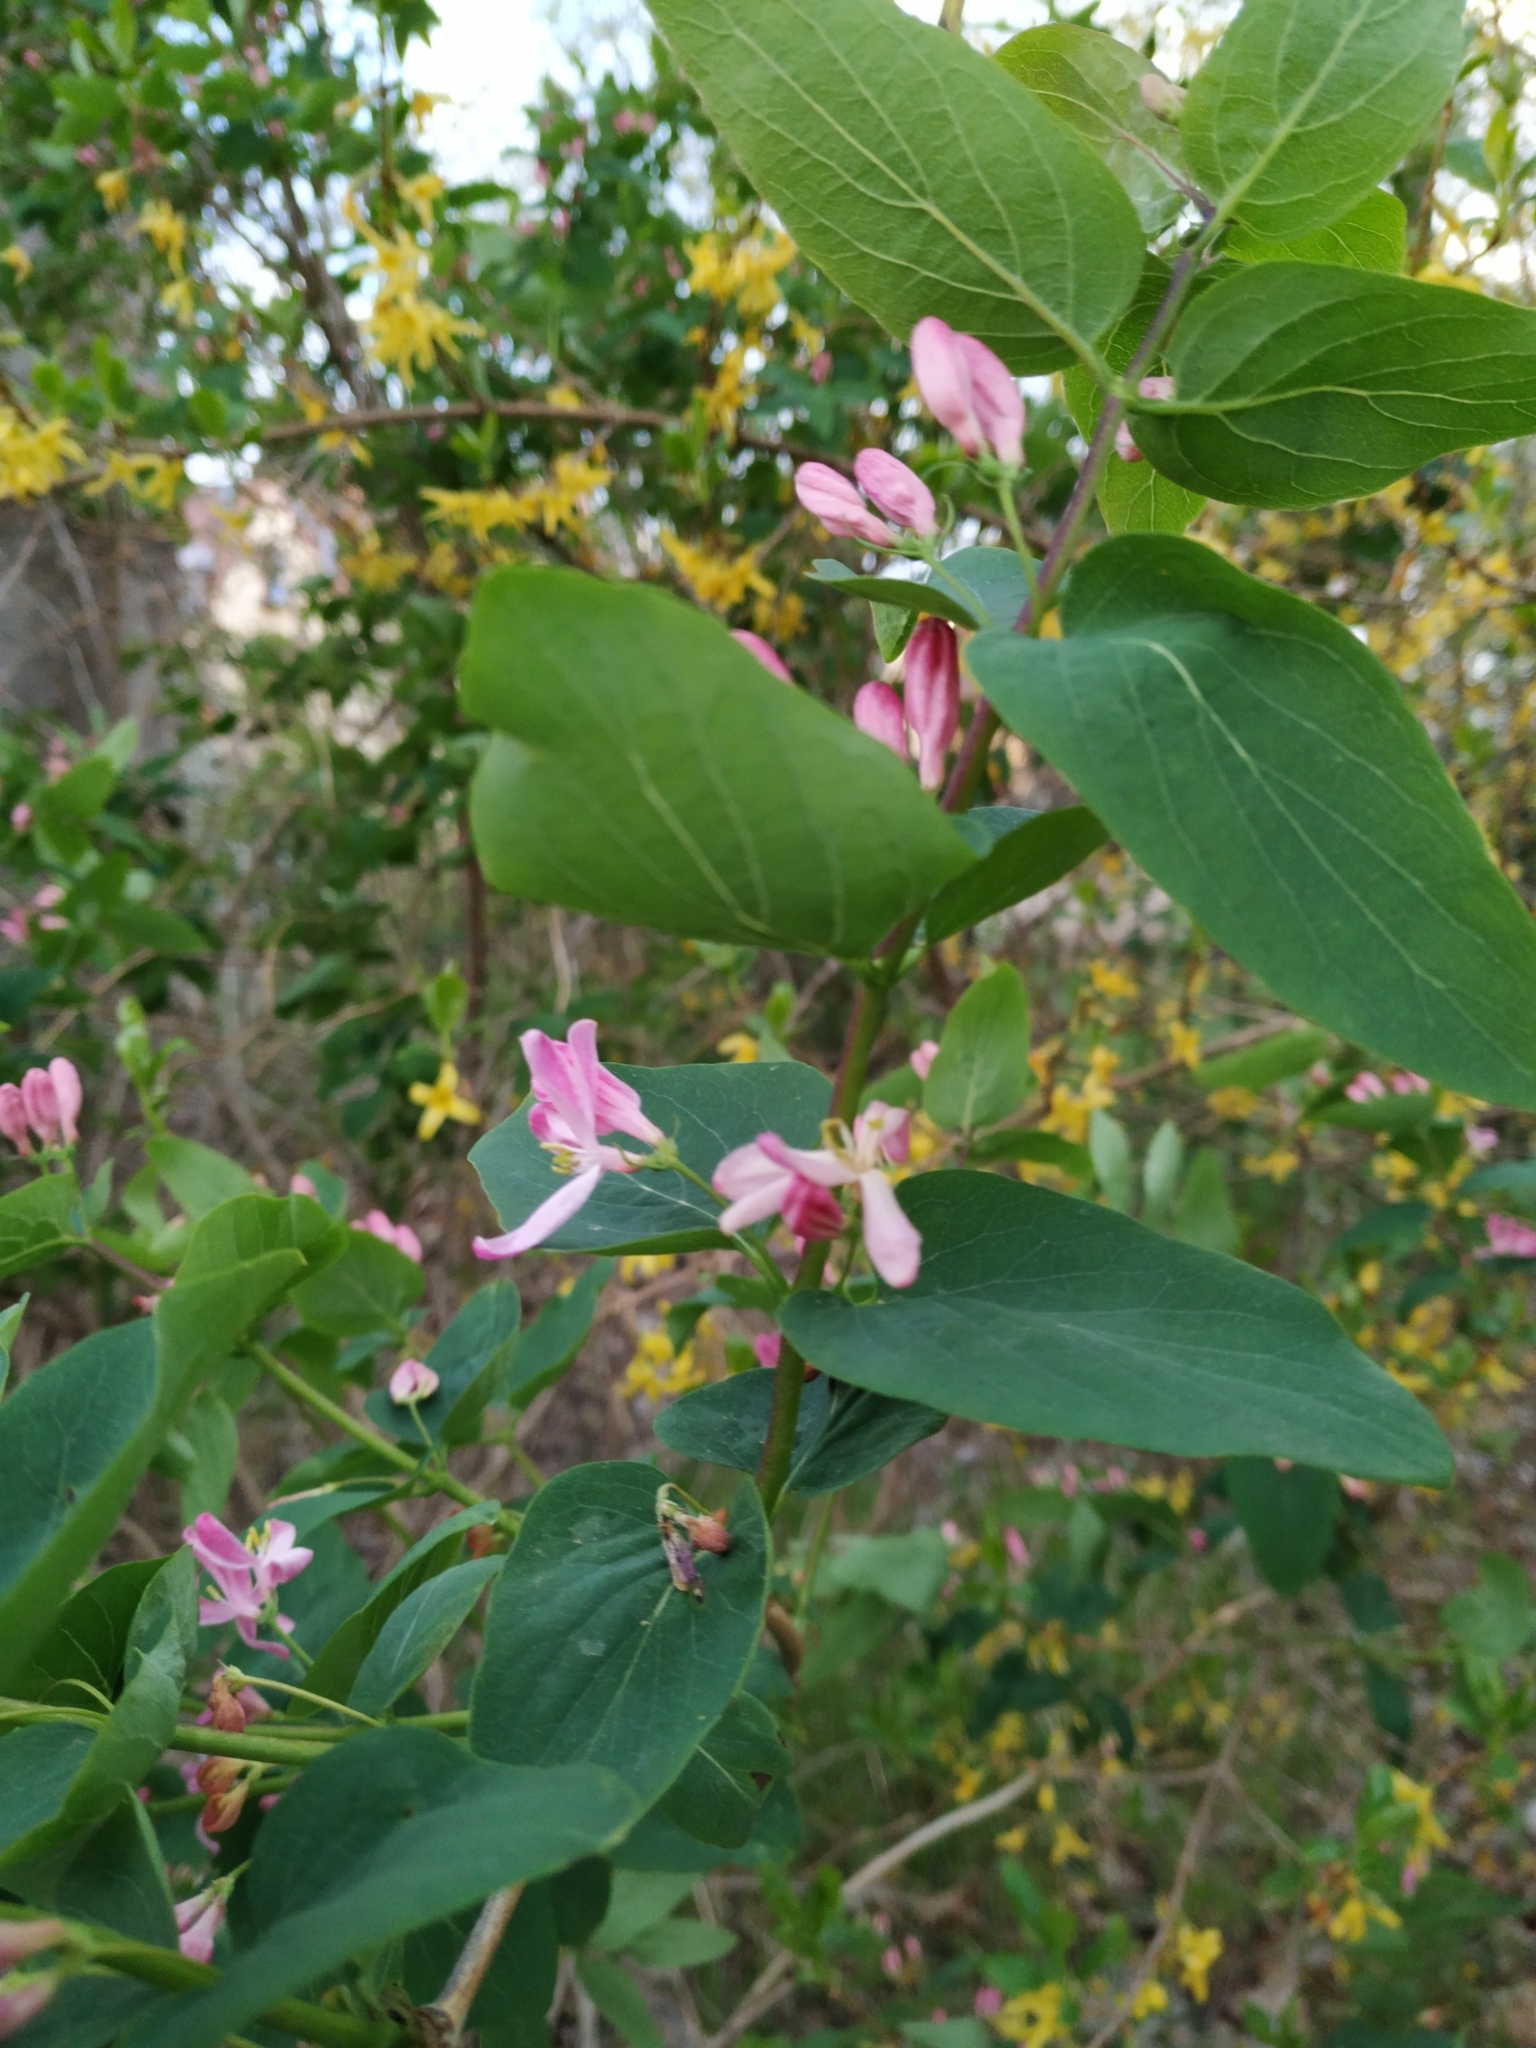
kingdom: Plantae
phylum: Tracheophyta
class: Magnoliopsida
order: Dipsacales
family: Caprifoliaceae
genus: Lonicera
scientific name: Lonicera tatarica
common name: Tatarian honeysuckle
